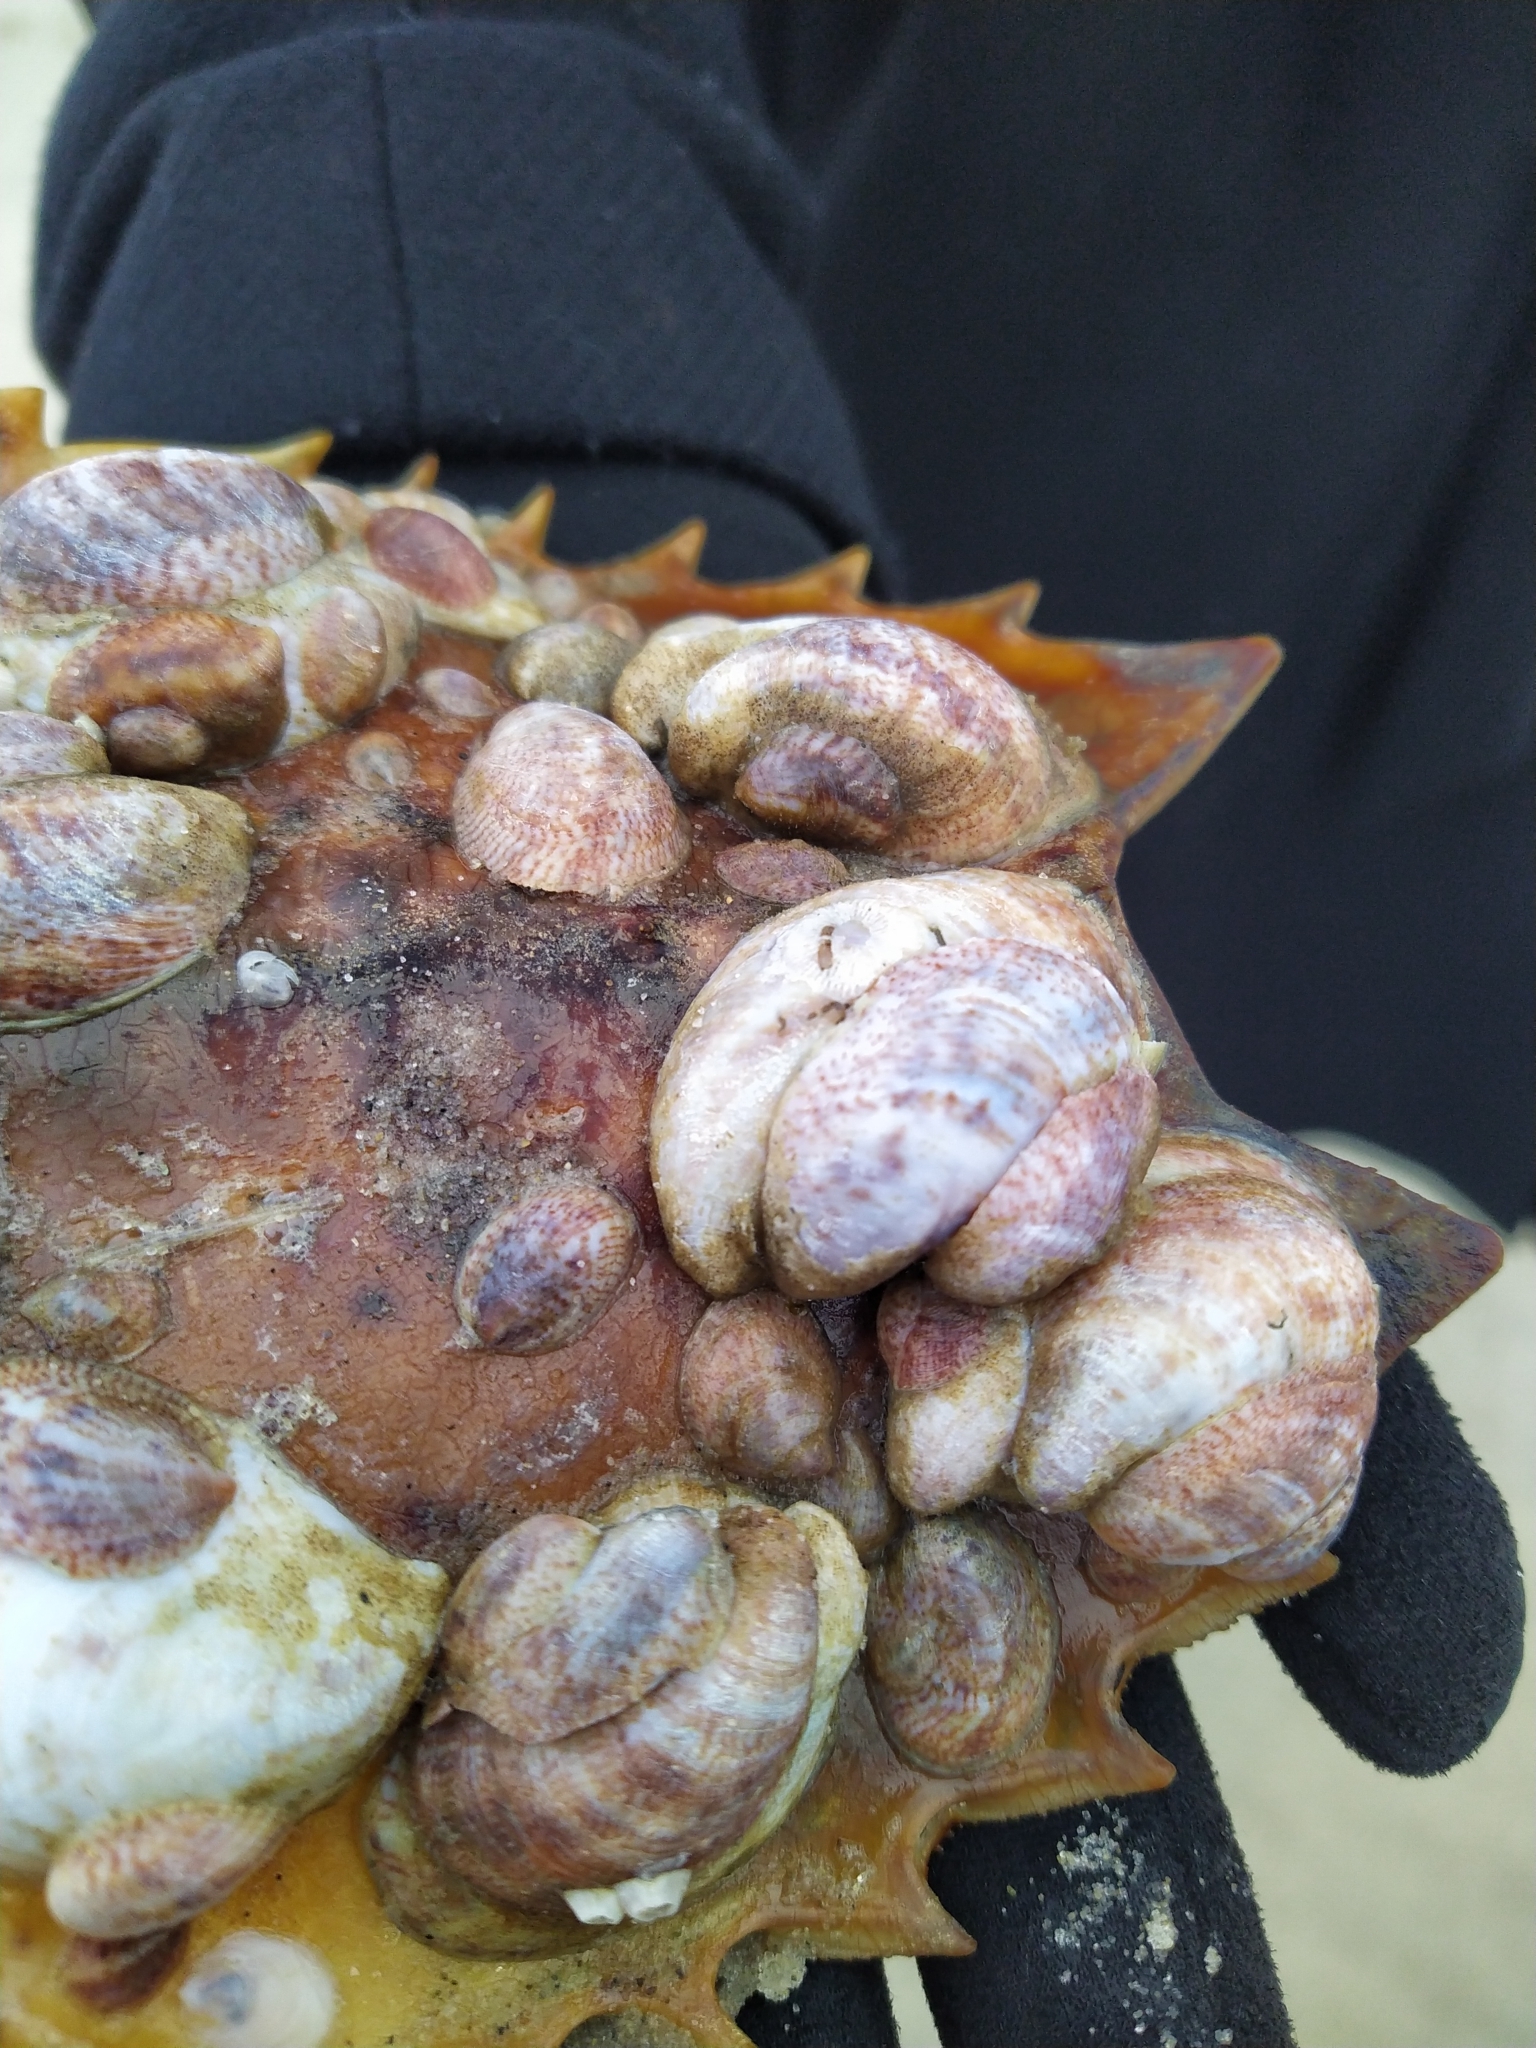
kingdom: Animalia
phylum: Mollusca
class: Gastropoda
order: Littorinimorpha
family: Calyptraeidae
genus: Crepidula
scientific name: Crepidula fornicata
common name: Slipper limpet
